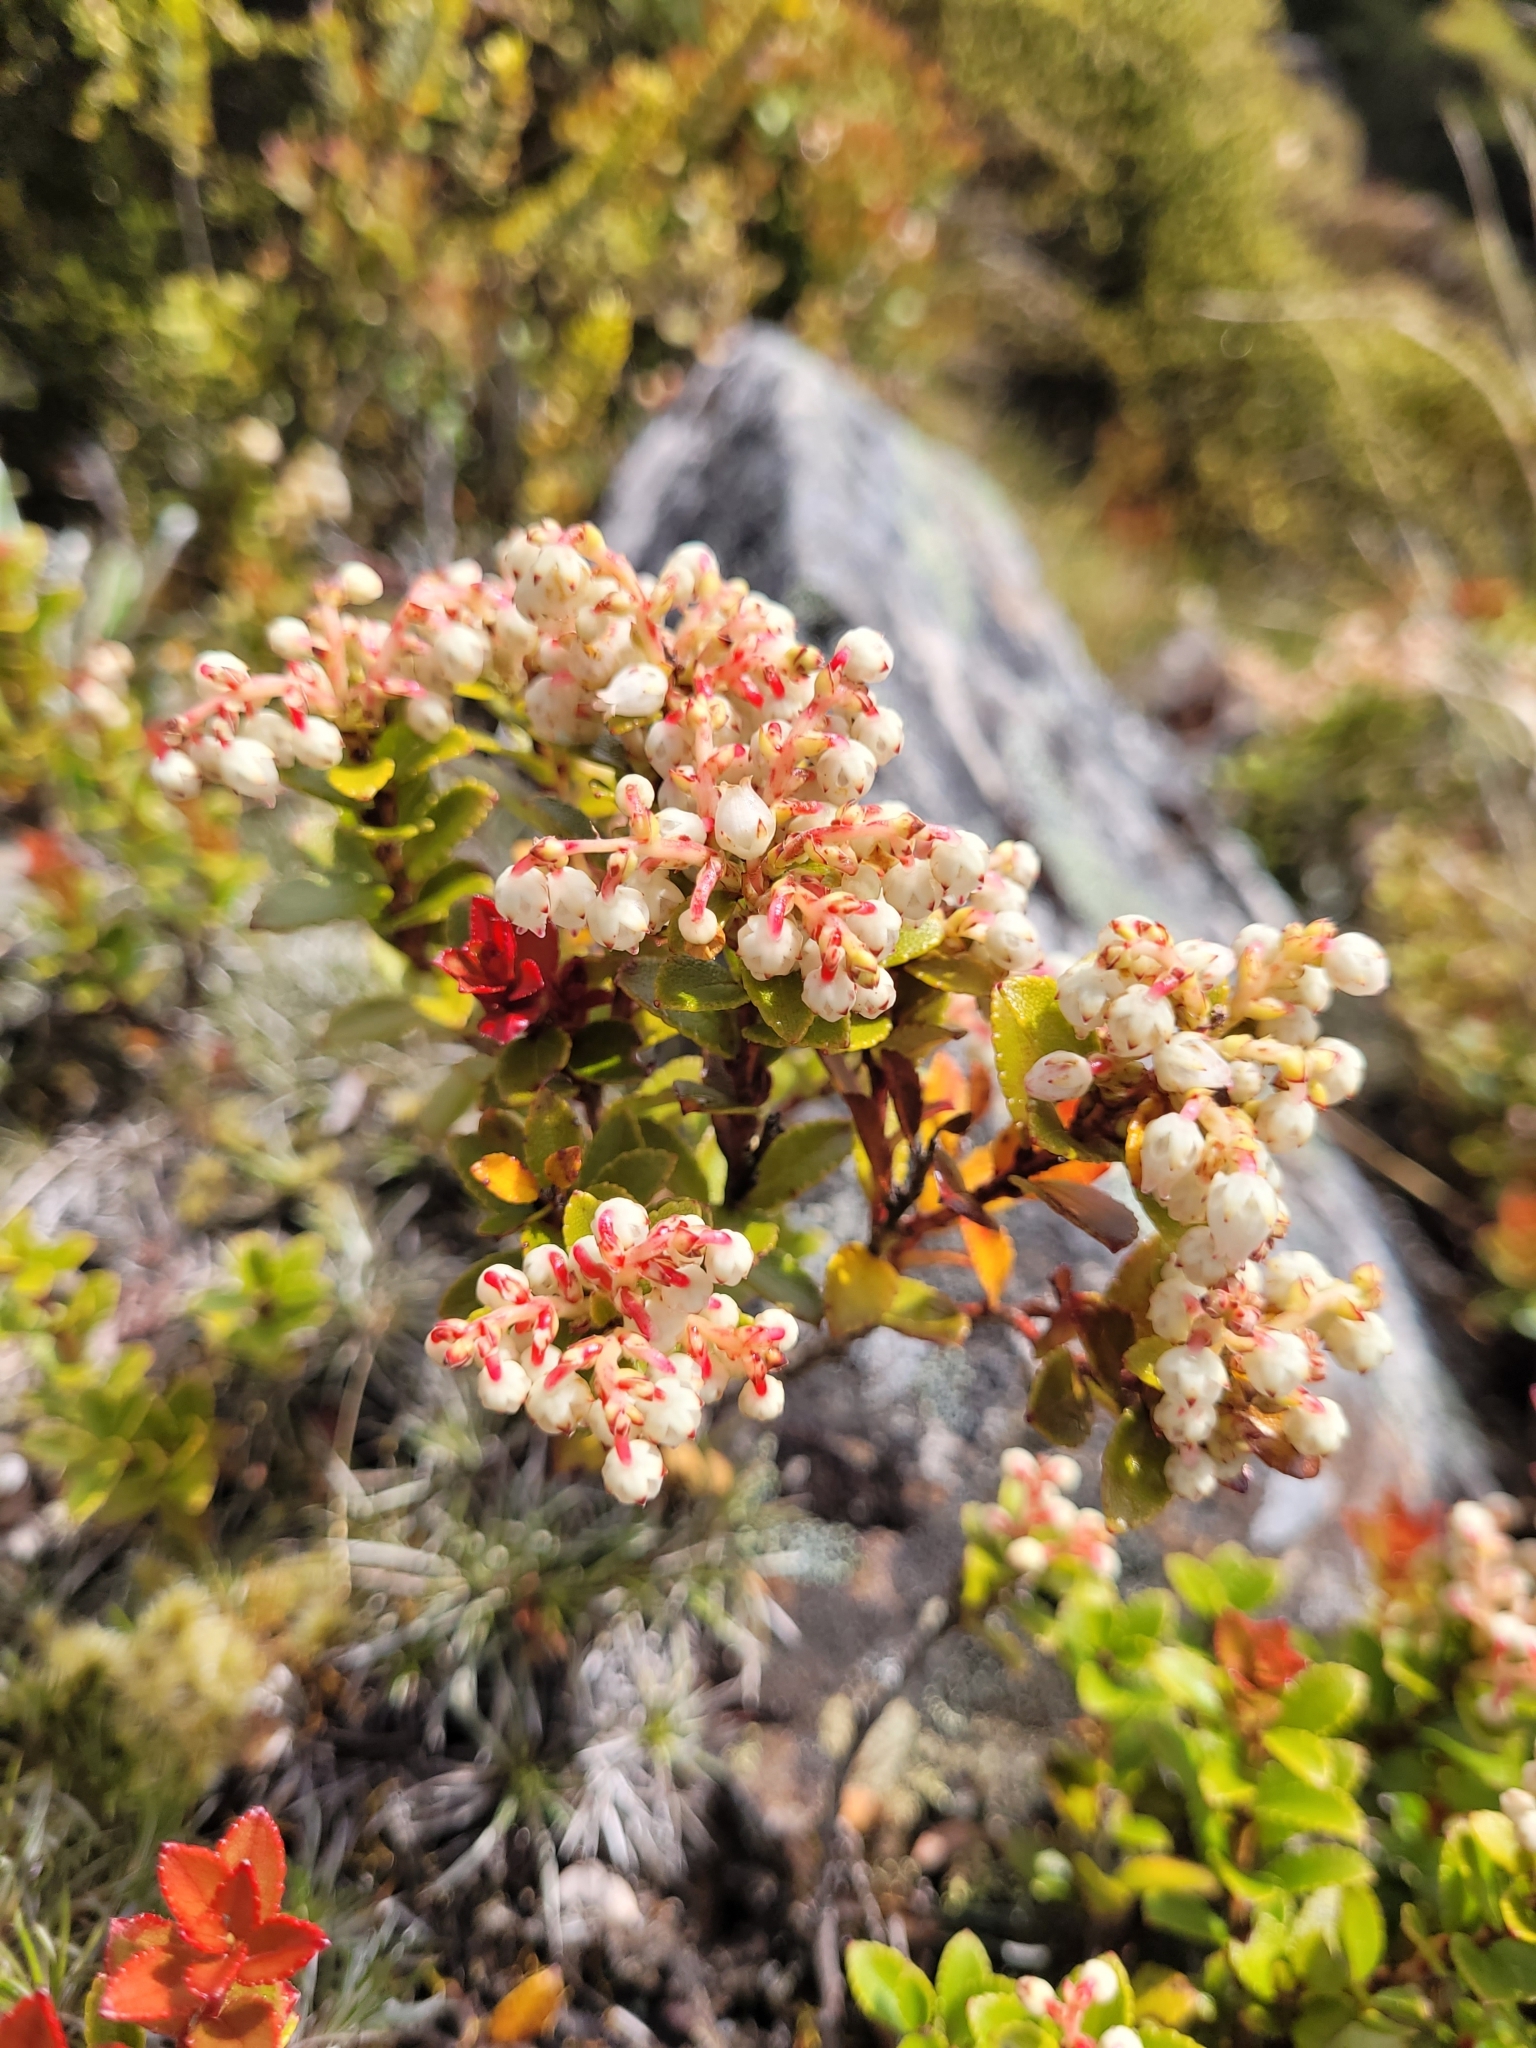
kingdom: Plantae
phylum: Tracheophyta
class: Magnoliopsida
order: Ericales
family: Ericaceae
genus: Gaultheria
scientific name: Gaultheria crassa
